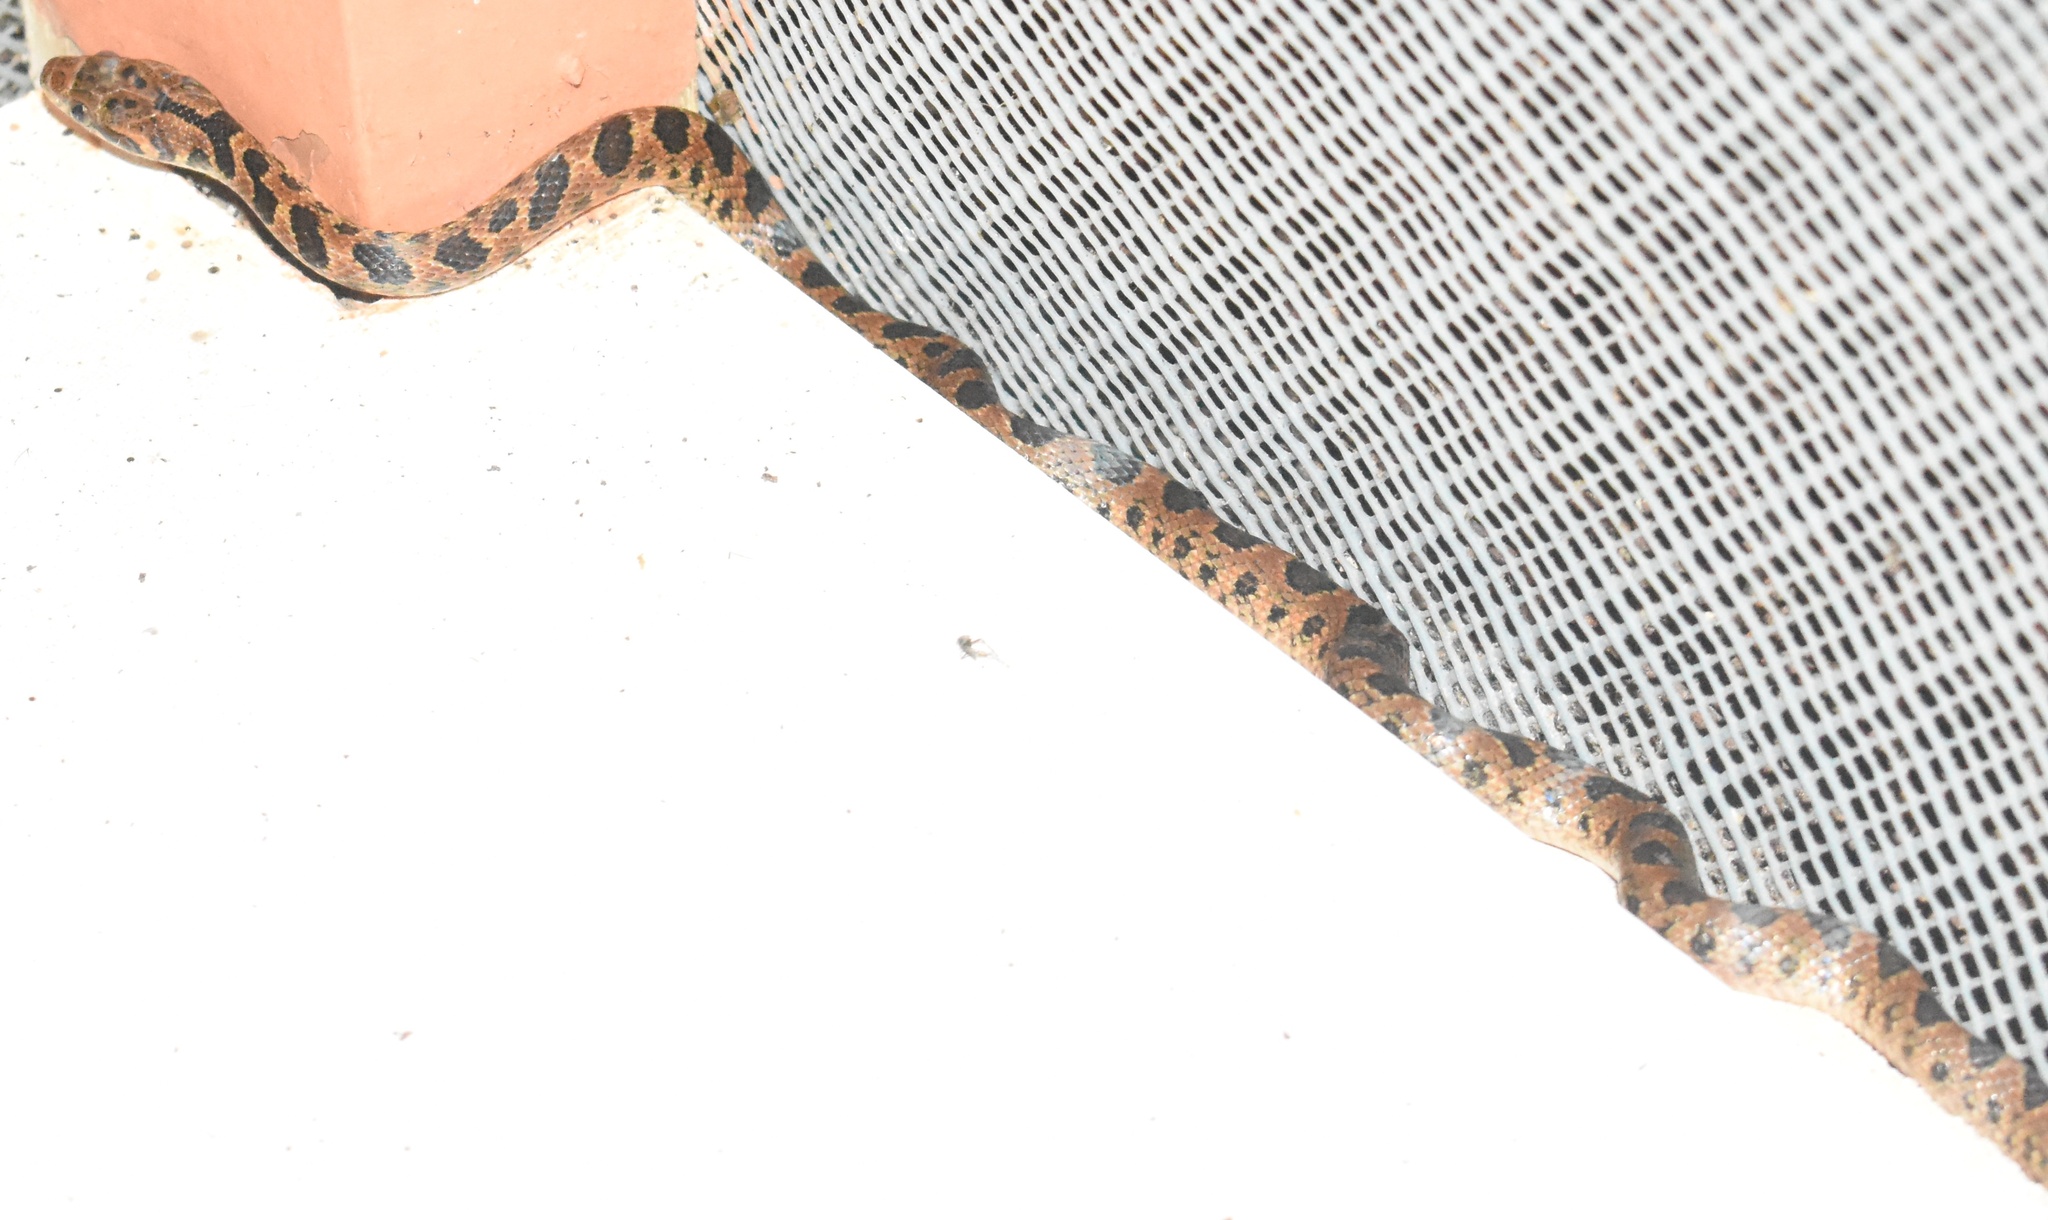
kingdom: Animalia
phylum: Chordata
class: Squamata
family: Colubridae
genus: Leptodeira
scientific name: Leptodeira rhombifera
